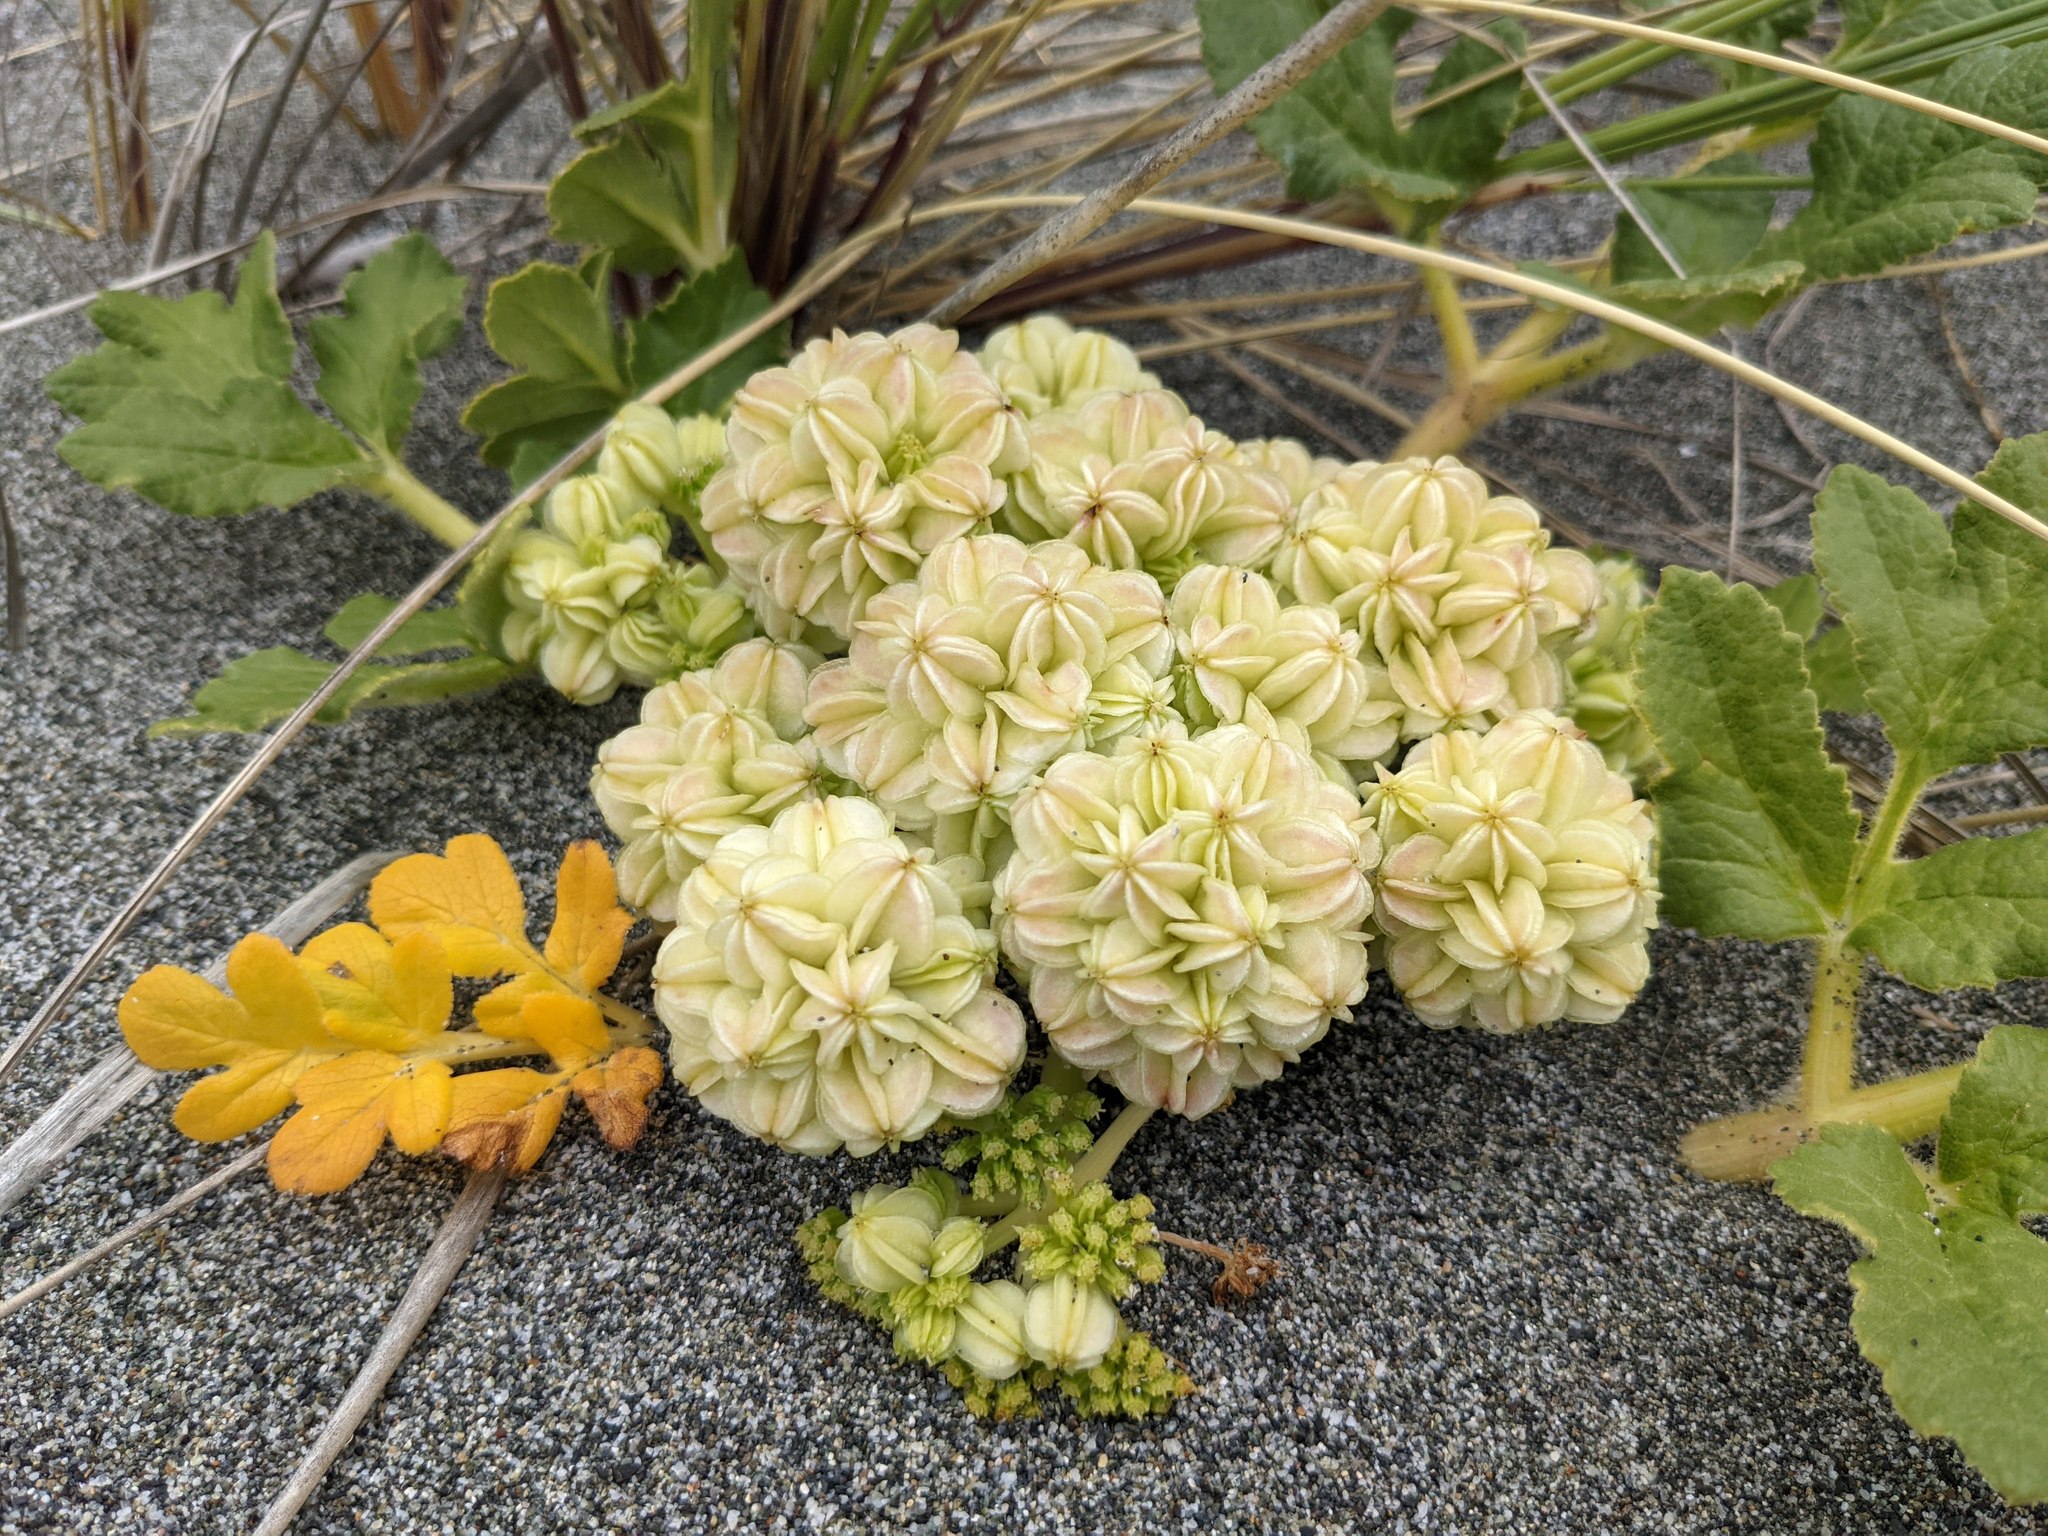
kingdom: Plantae
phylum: Tracheophyta
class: Magnoliopsida
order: Apiales
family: Apiaceae
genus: Angelica
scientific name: Angelica leiocarpa
